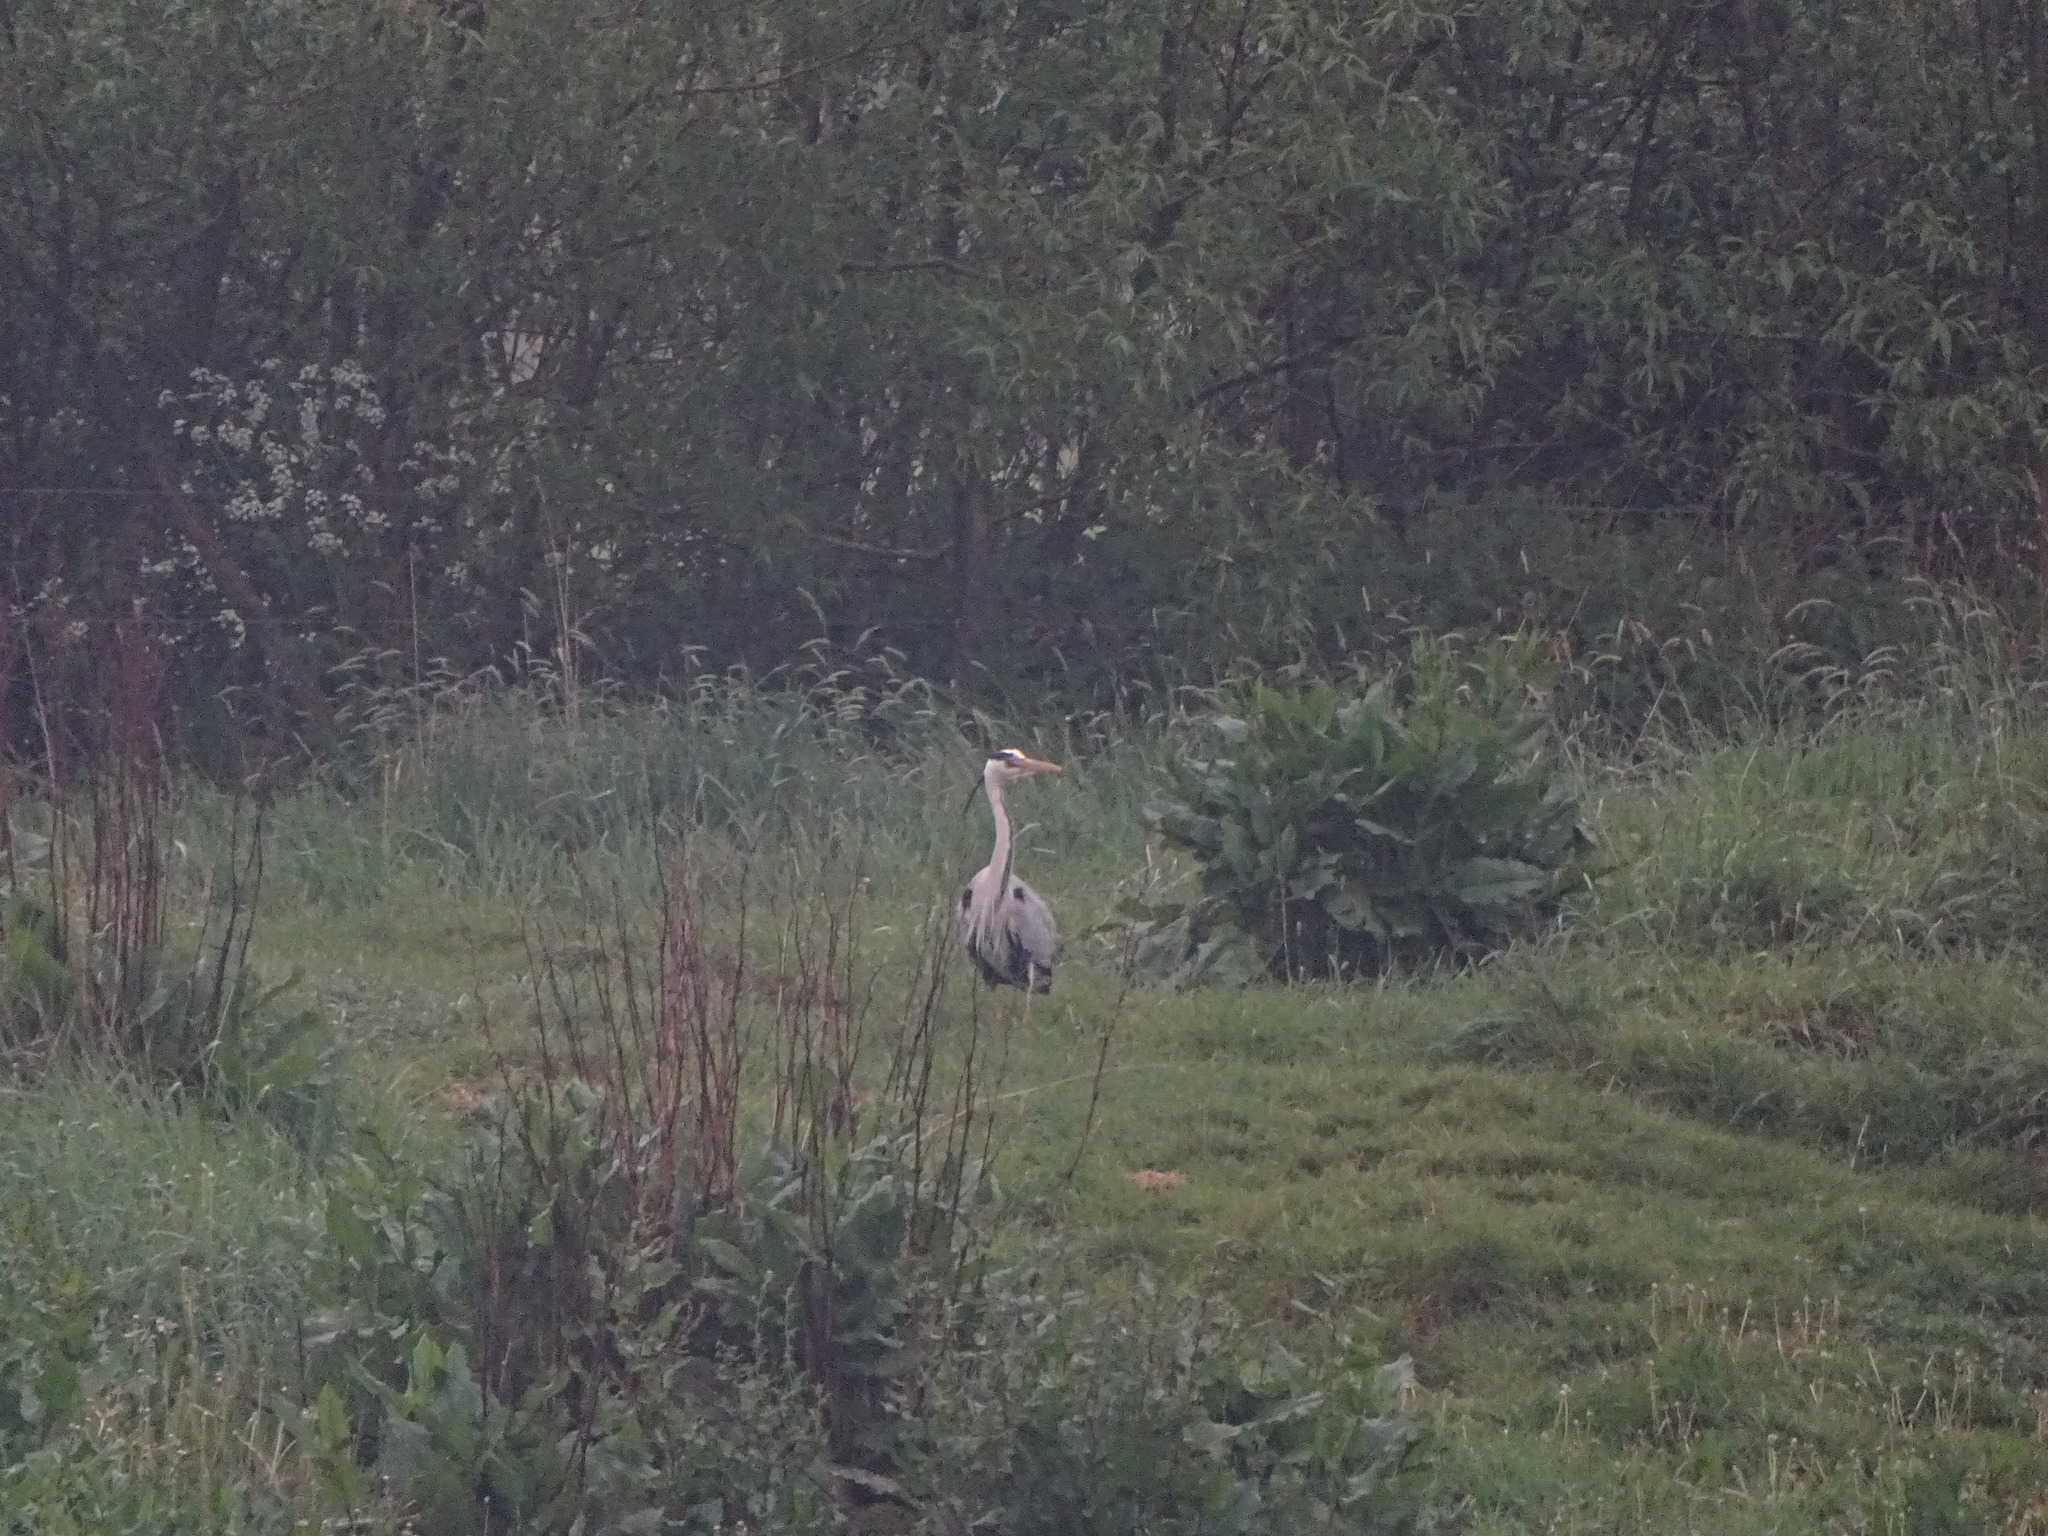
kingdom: Animalia
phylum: Chordata
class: Aves
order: Pelecaniformes
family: Ardeidae
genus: Ardea
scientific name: Ardea cinerea
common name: Grey heron
